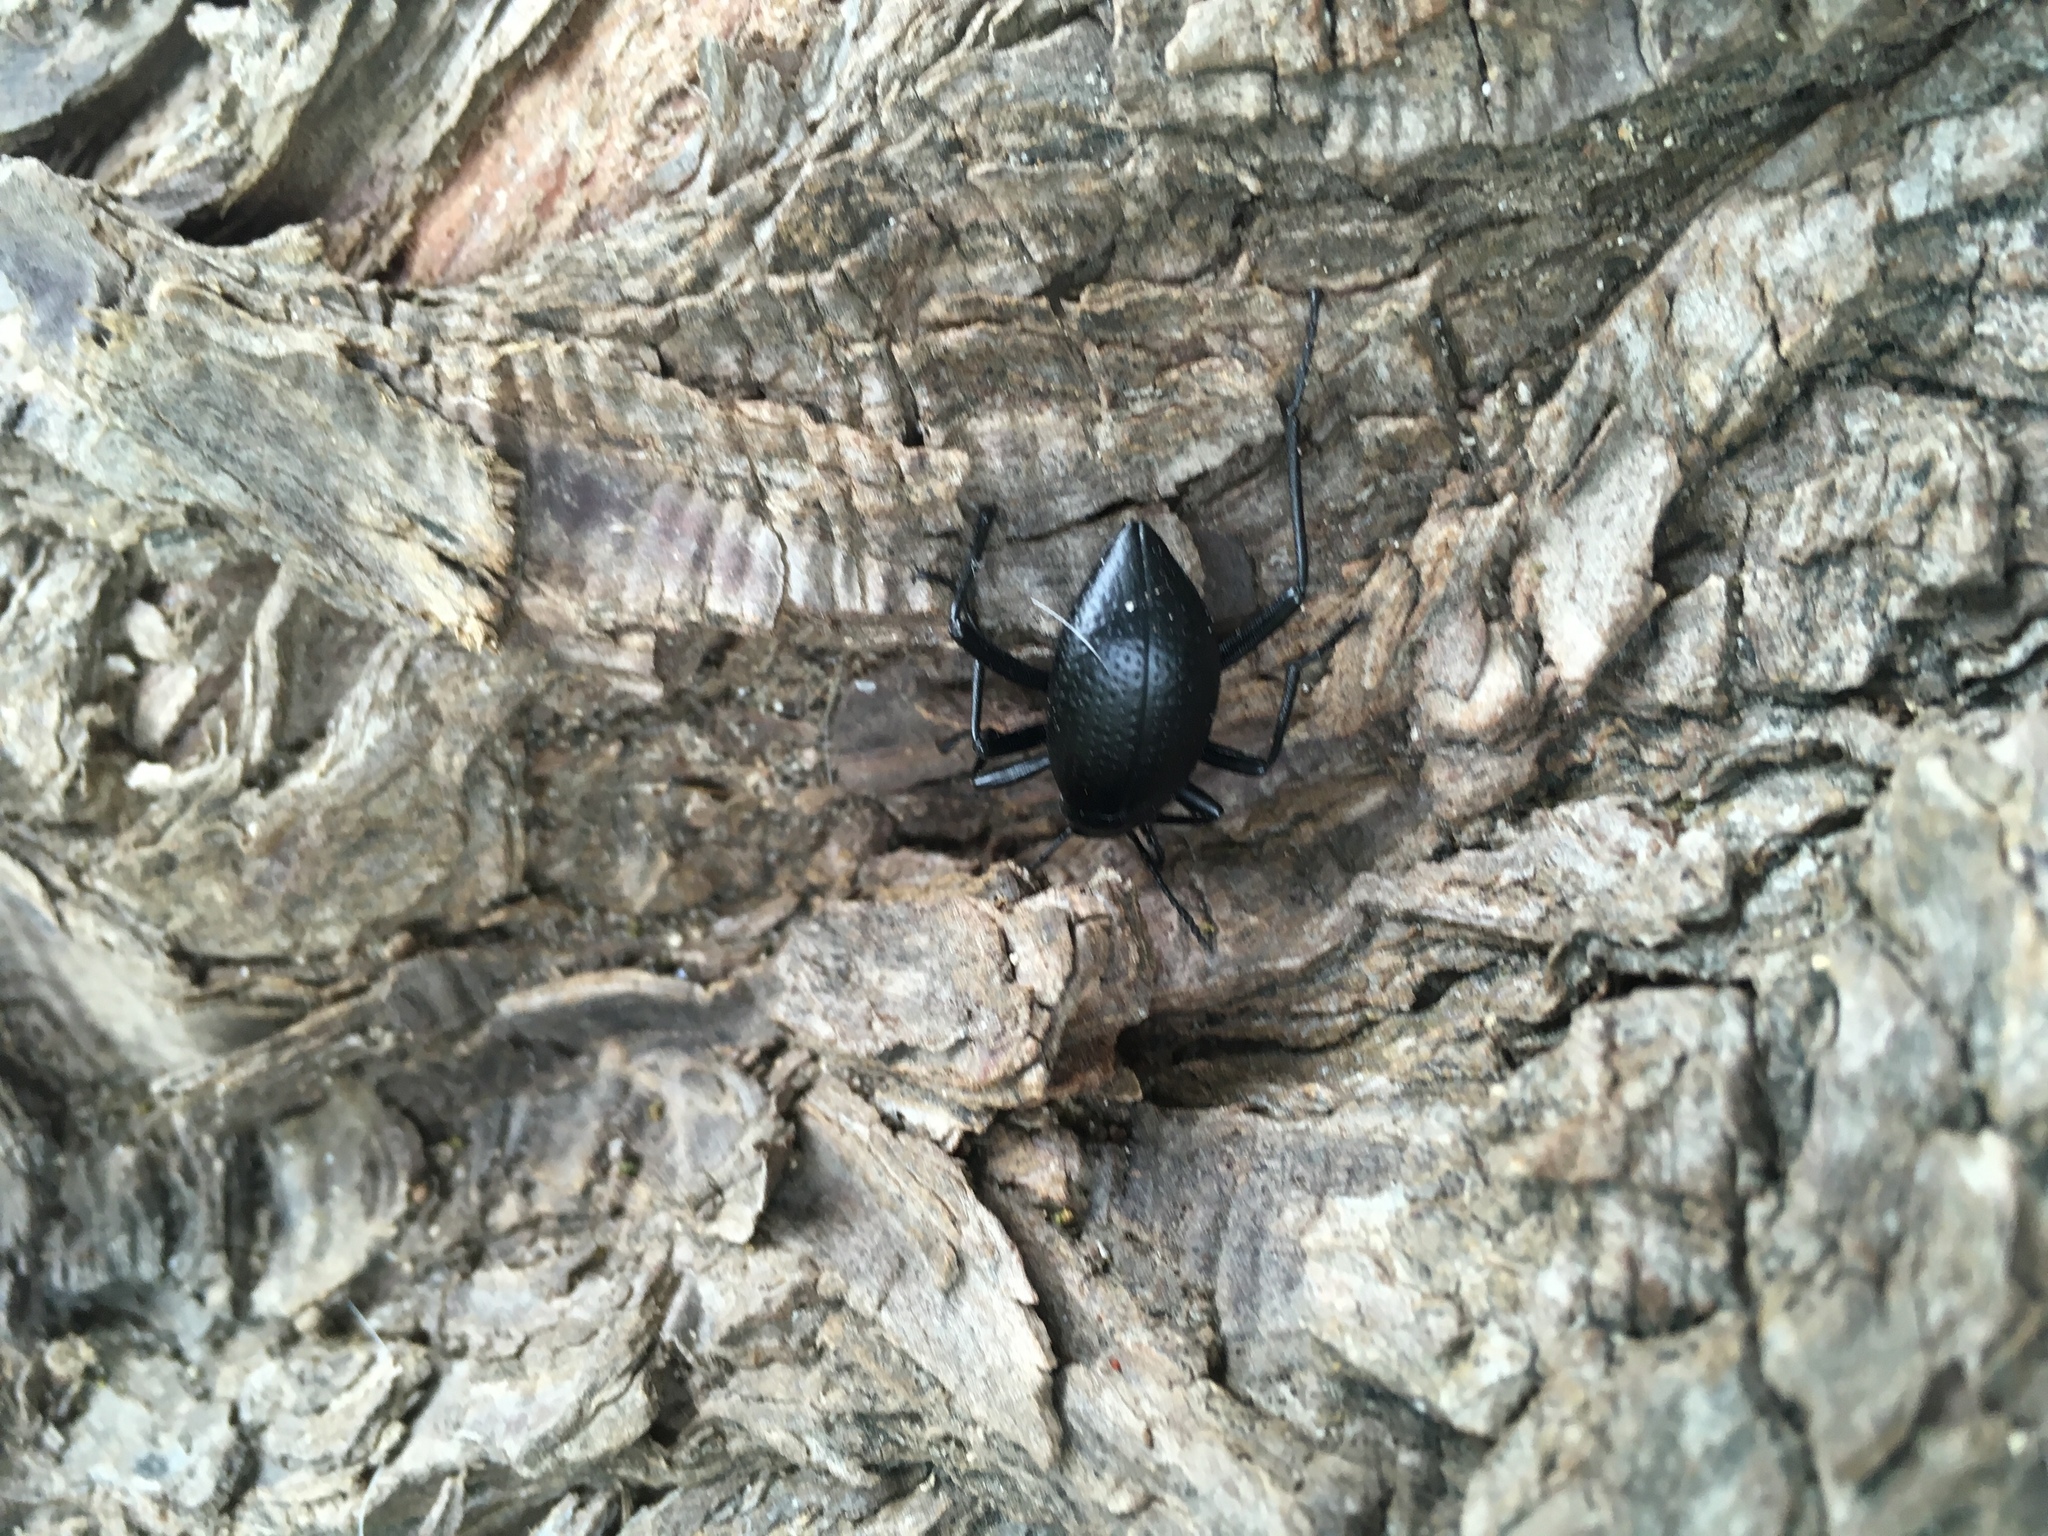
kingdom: Animalia
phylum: Arthropoda
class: Insecta
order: Coleoptera
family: Tenebrionidae
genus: Eleodes
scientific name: Eleodes goryi
